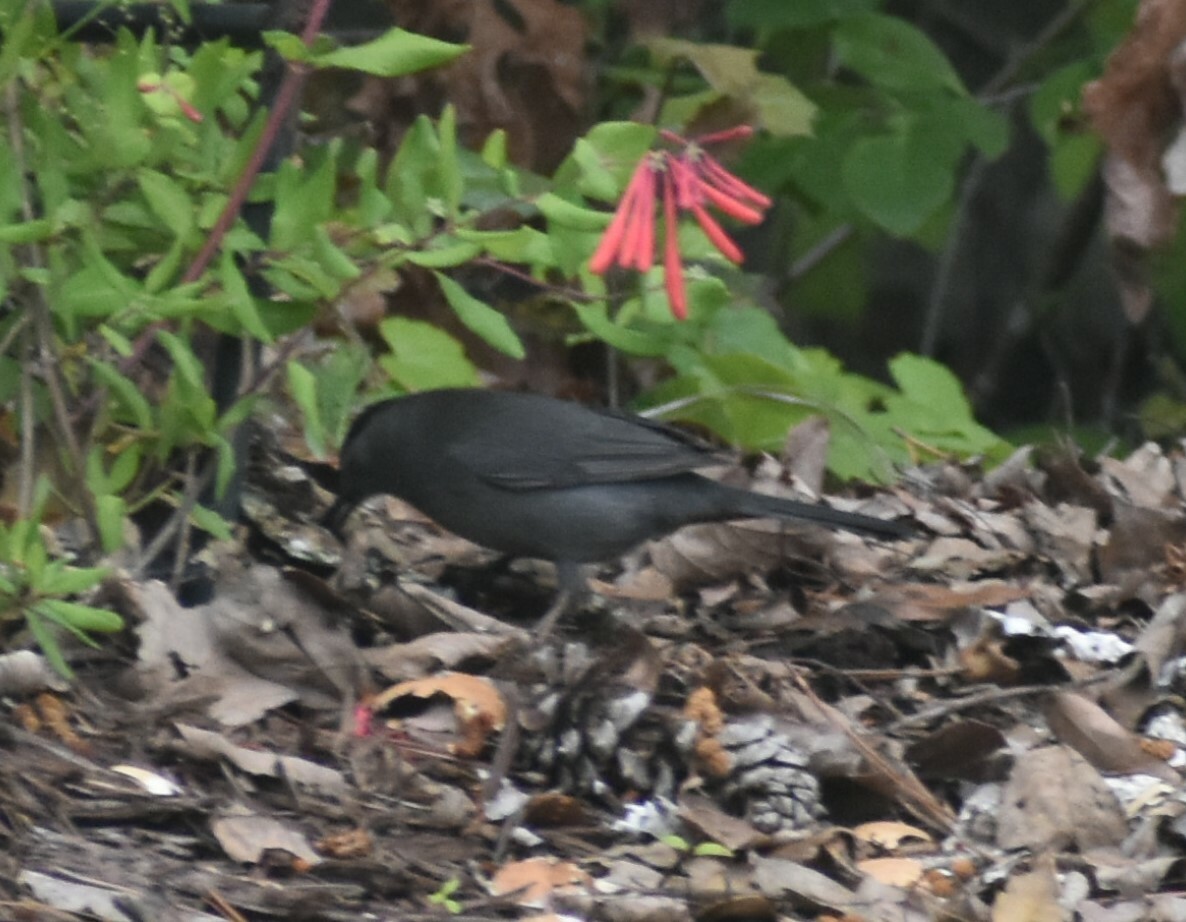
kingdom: Animalia
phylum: Chordata
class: Aves
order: Passeriformes
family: Mimidae
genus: Dumetella
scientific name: Dumetella carolinensis
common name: Gray catbird
